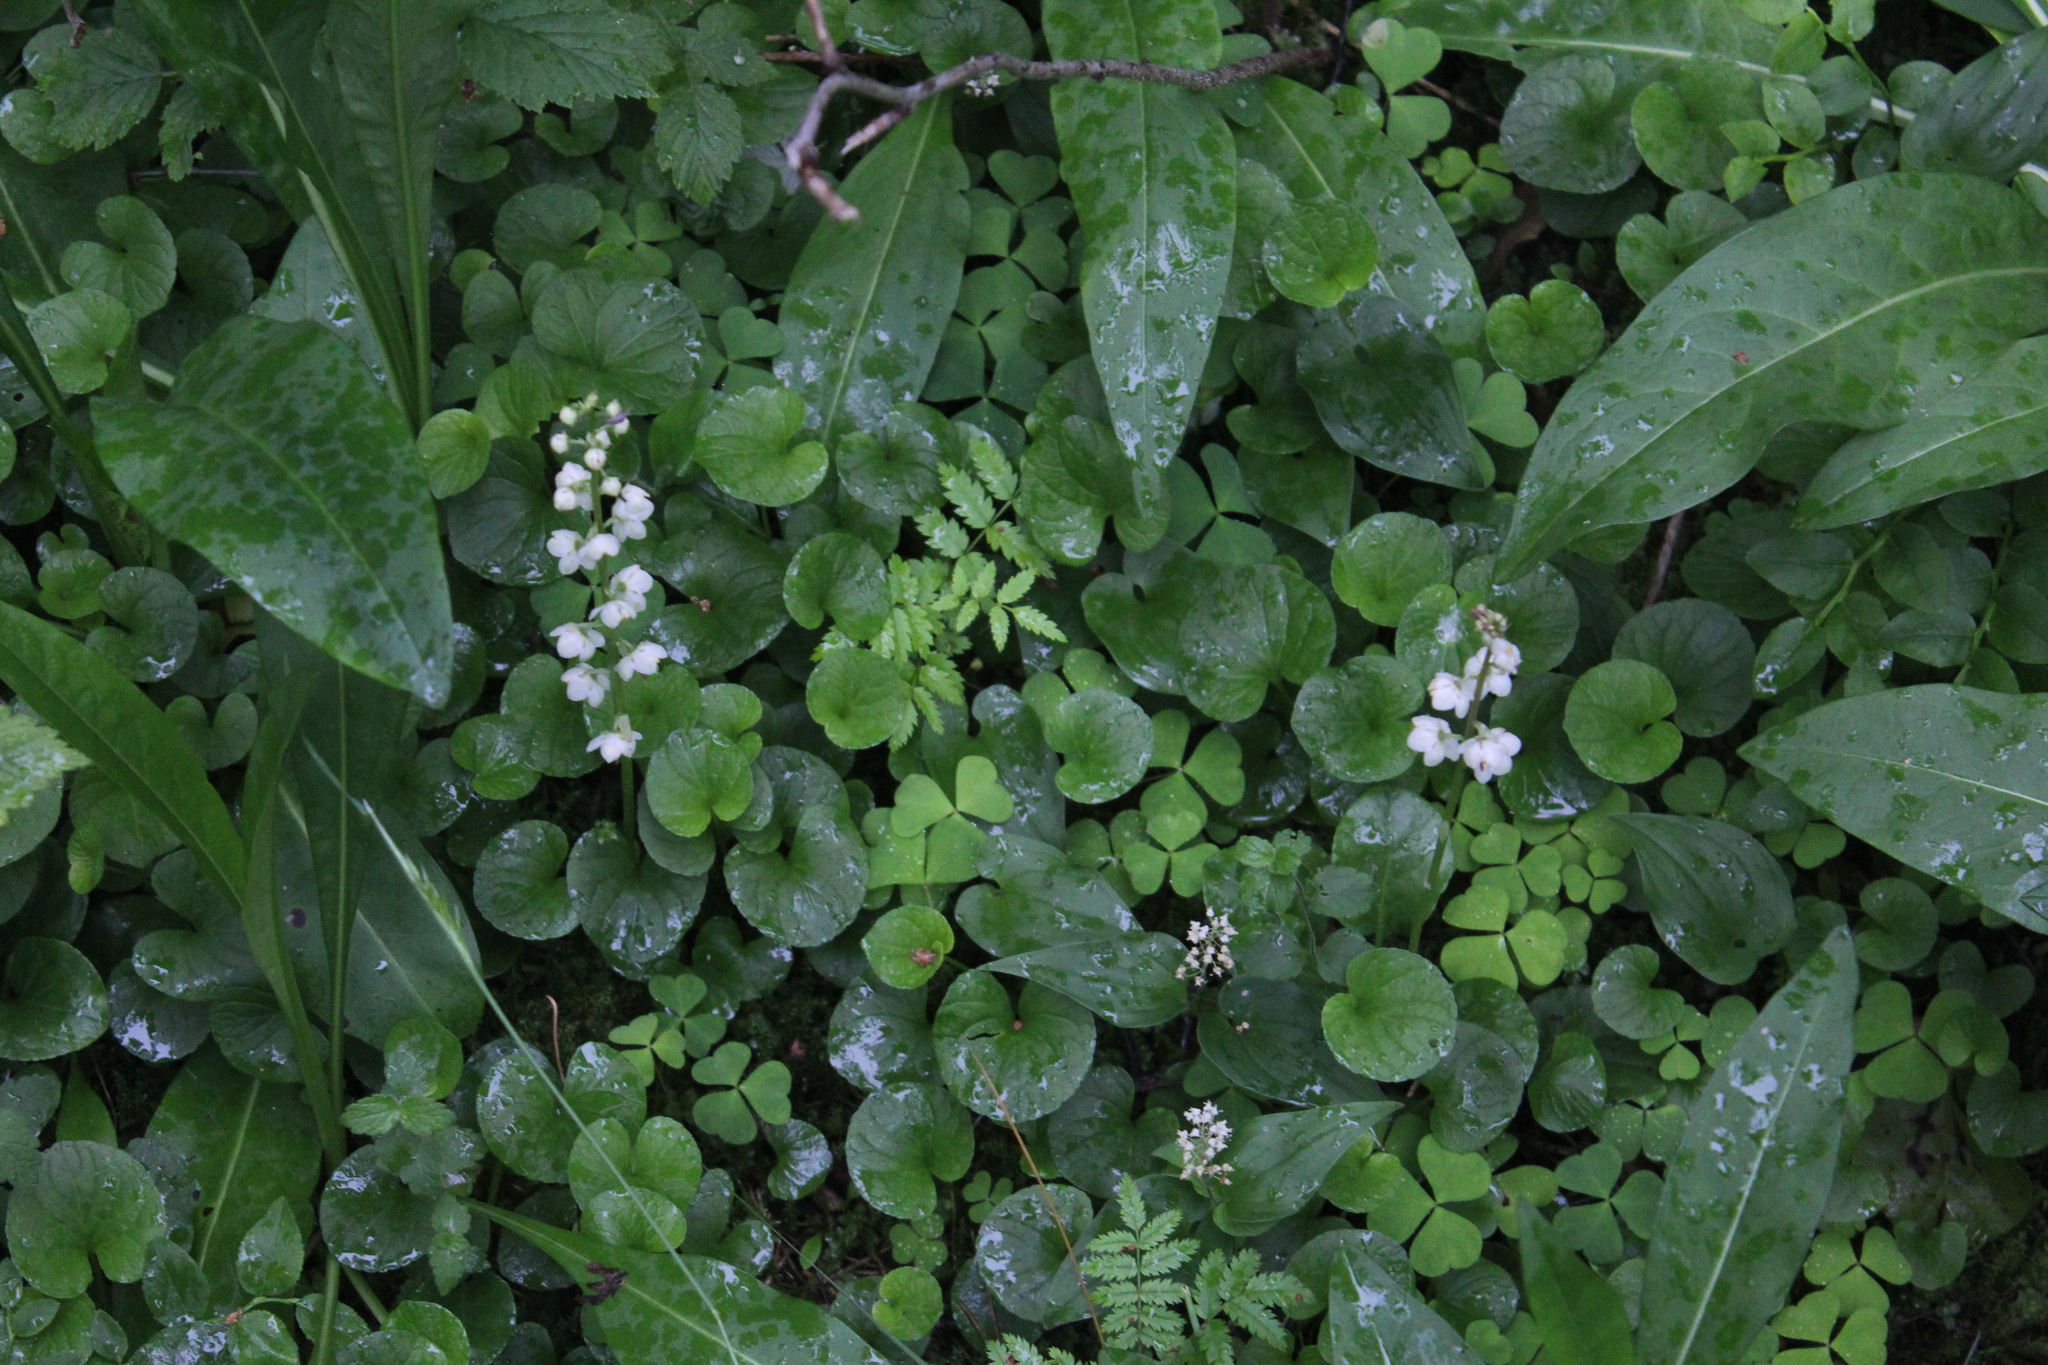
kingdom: Plantae
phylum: Tracheophyta
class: Magnoliopsida
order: Ericales
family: Ericaceae
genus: Pyrola
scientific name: Pyrola rotundifolia
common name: Round-leaved wintergreen
